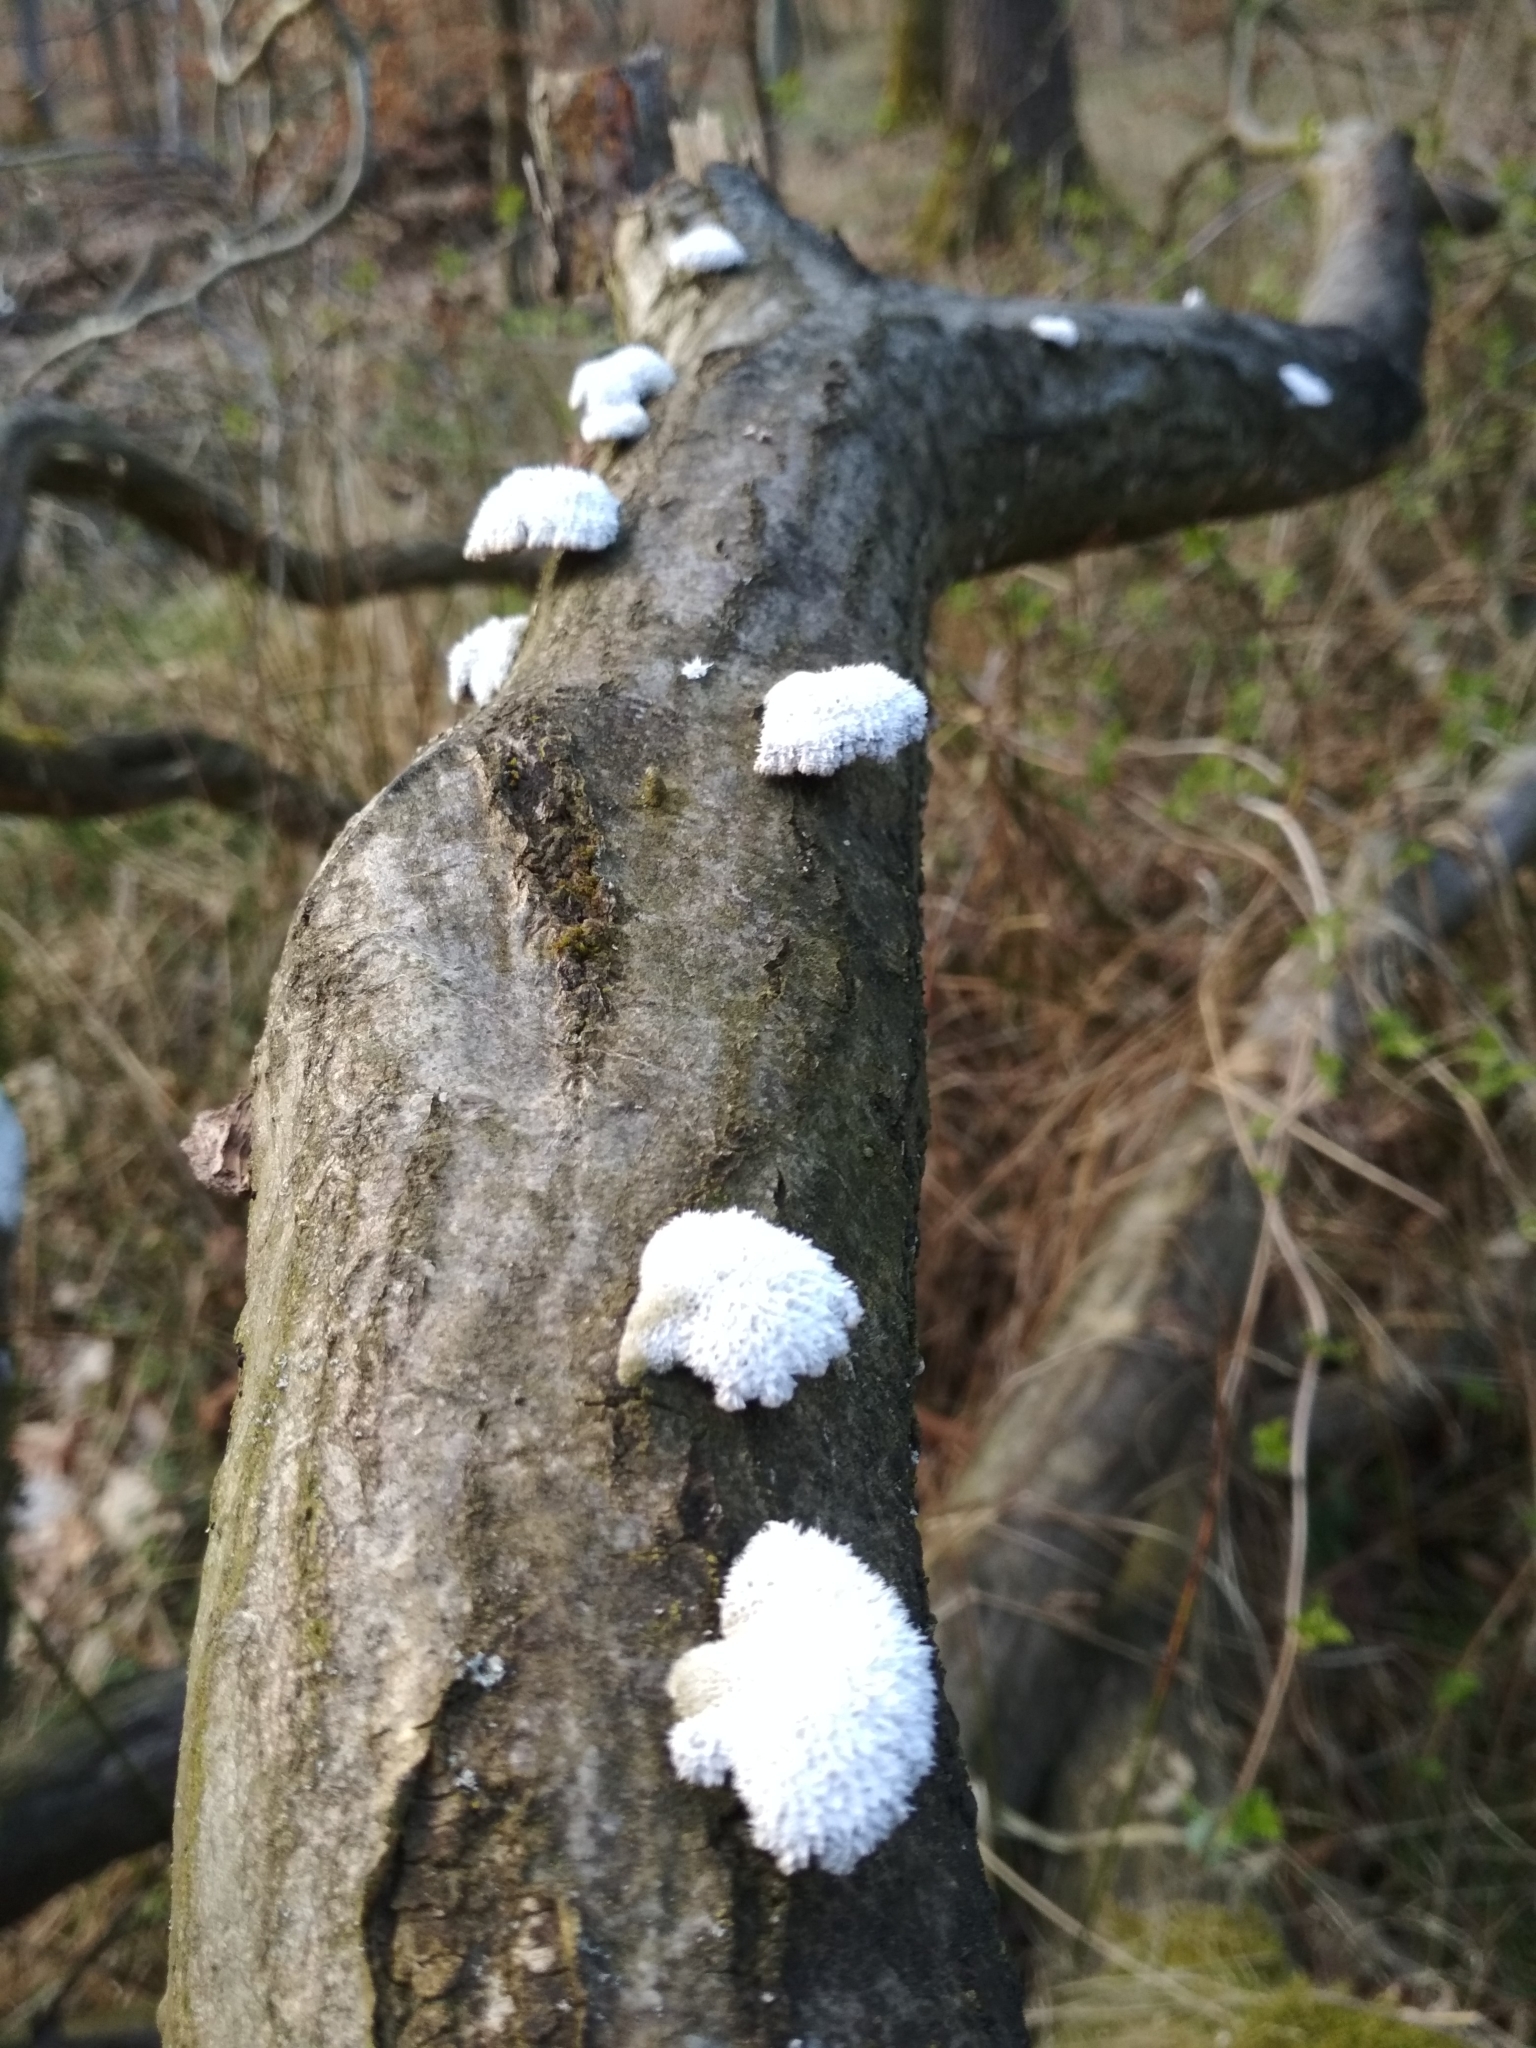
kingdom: Fungi
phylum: Basidiomycota
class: Agaricomycetes
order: Agaricales
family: Schizophyllaceae
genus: Schizophyllum
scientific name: Schizophyllum commune
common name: Common porecrust
